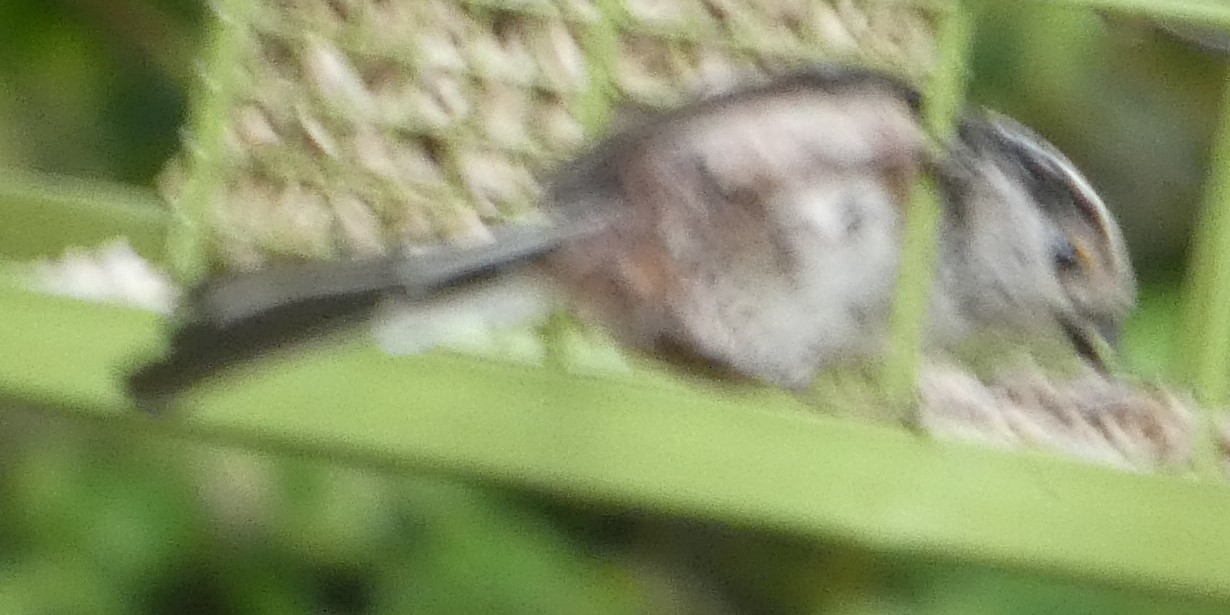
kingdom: Animalia
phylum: Chordata
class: Aves
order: Passeriformes
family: Aegithalidae
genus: Aegithalos
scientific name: Aegithalos caudatus
